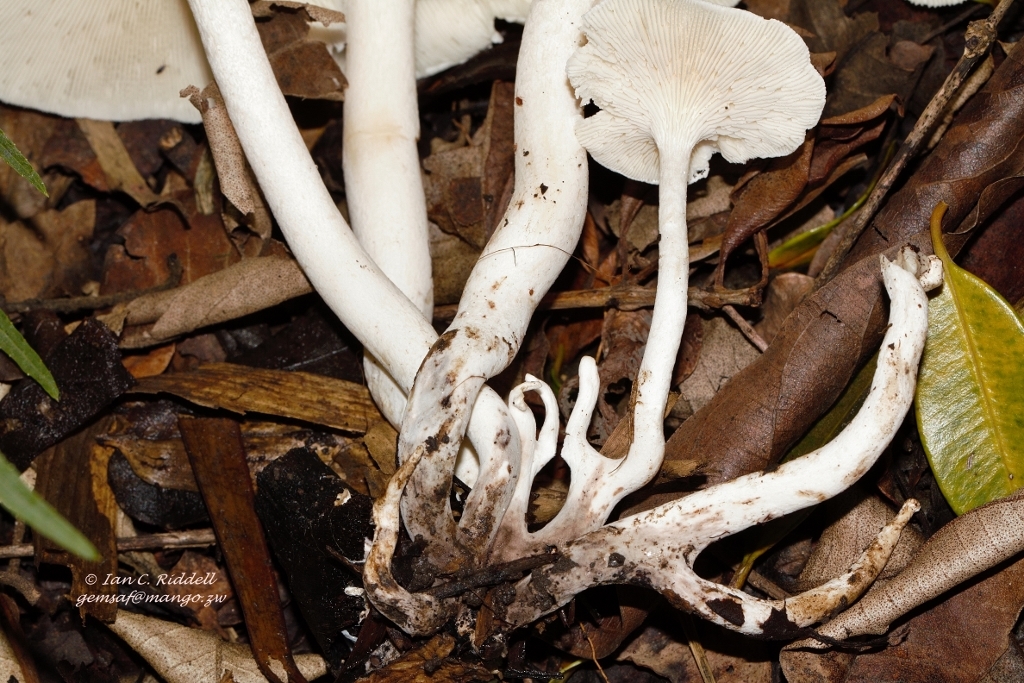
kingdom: Fungi
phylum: Basidiomycota
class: Agaricomycetes
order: Polyporales
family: Polyporaceae
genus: Lentinus
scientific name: Lentinus cladopus
